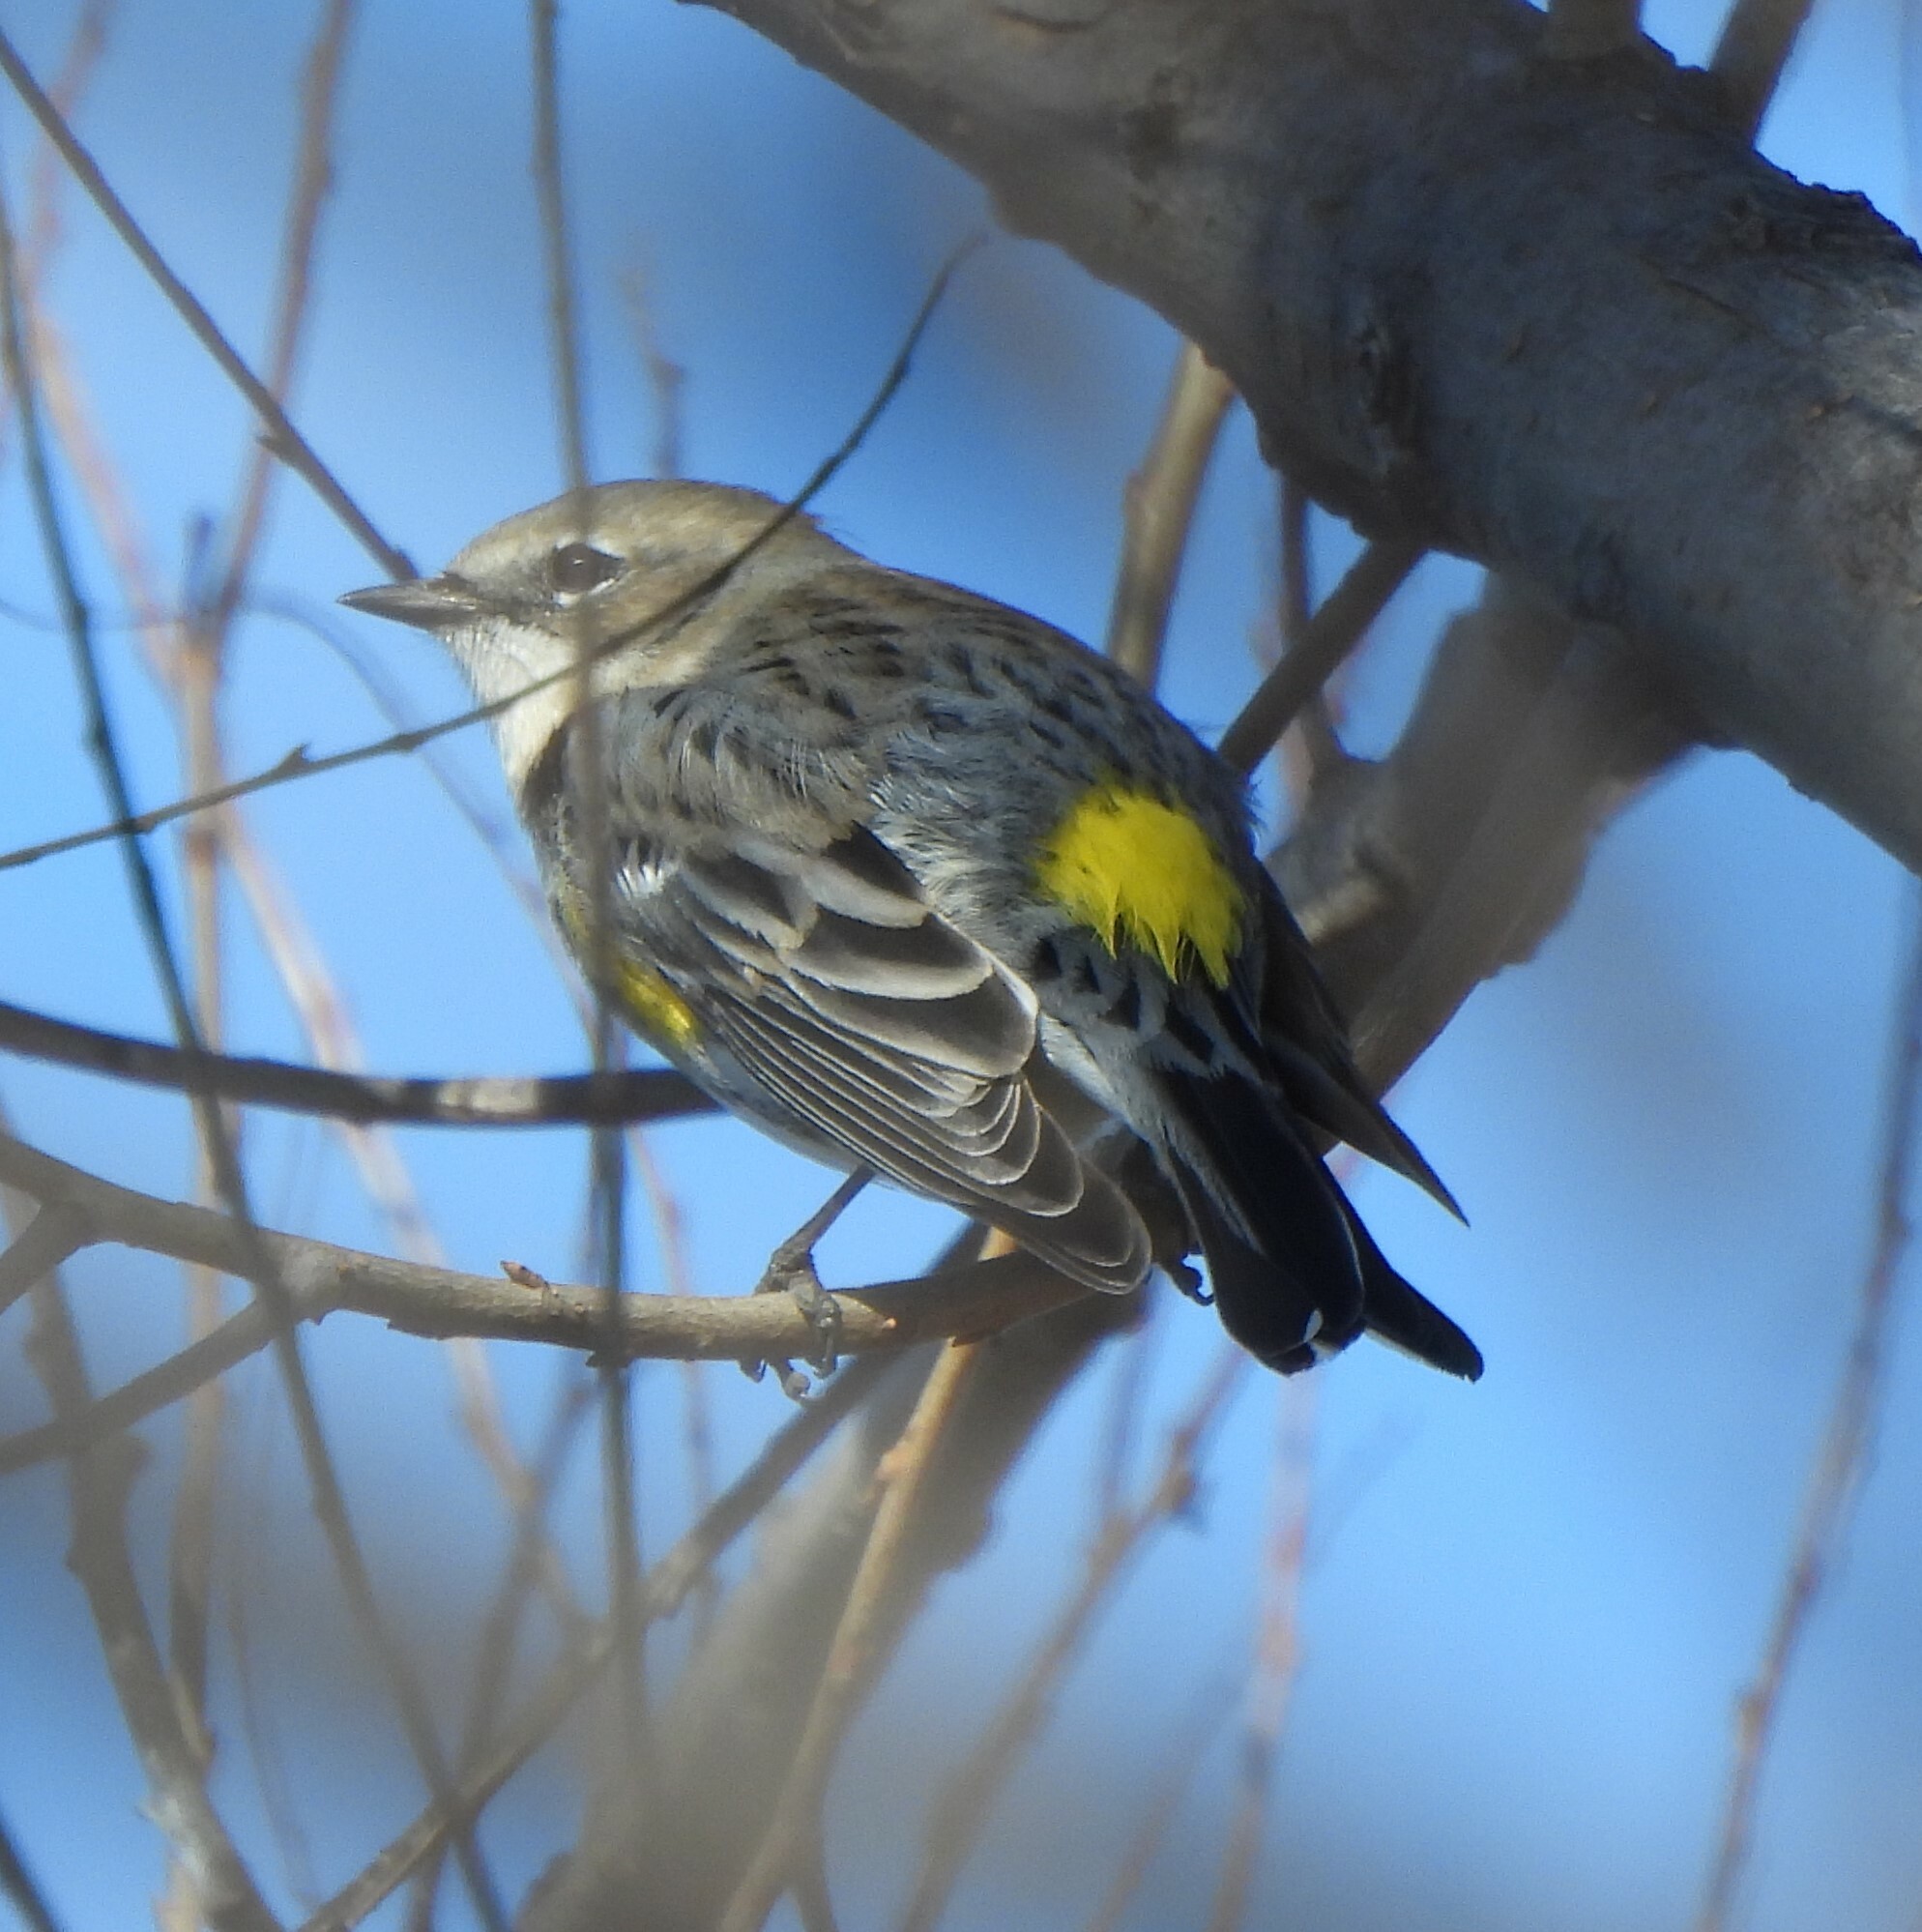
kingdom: Animalia
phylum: Chordata
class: Aves
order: Passeriformes
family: Parulidae
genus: Setophaga
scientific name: Setophaga coronata
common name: Myrtle warbler
